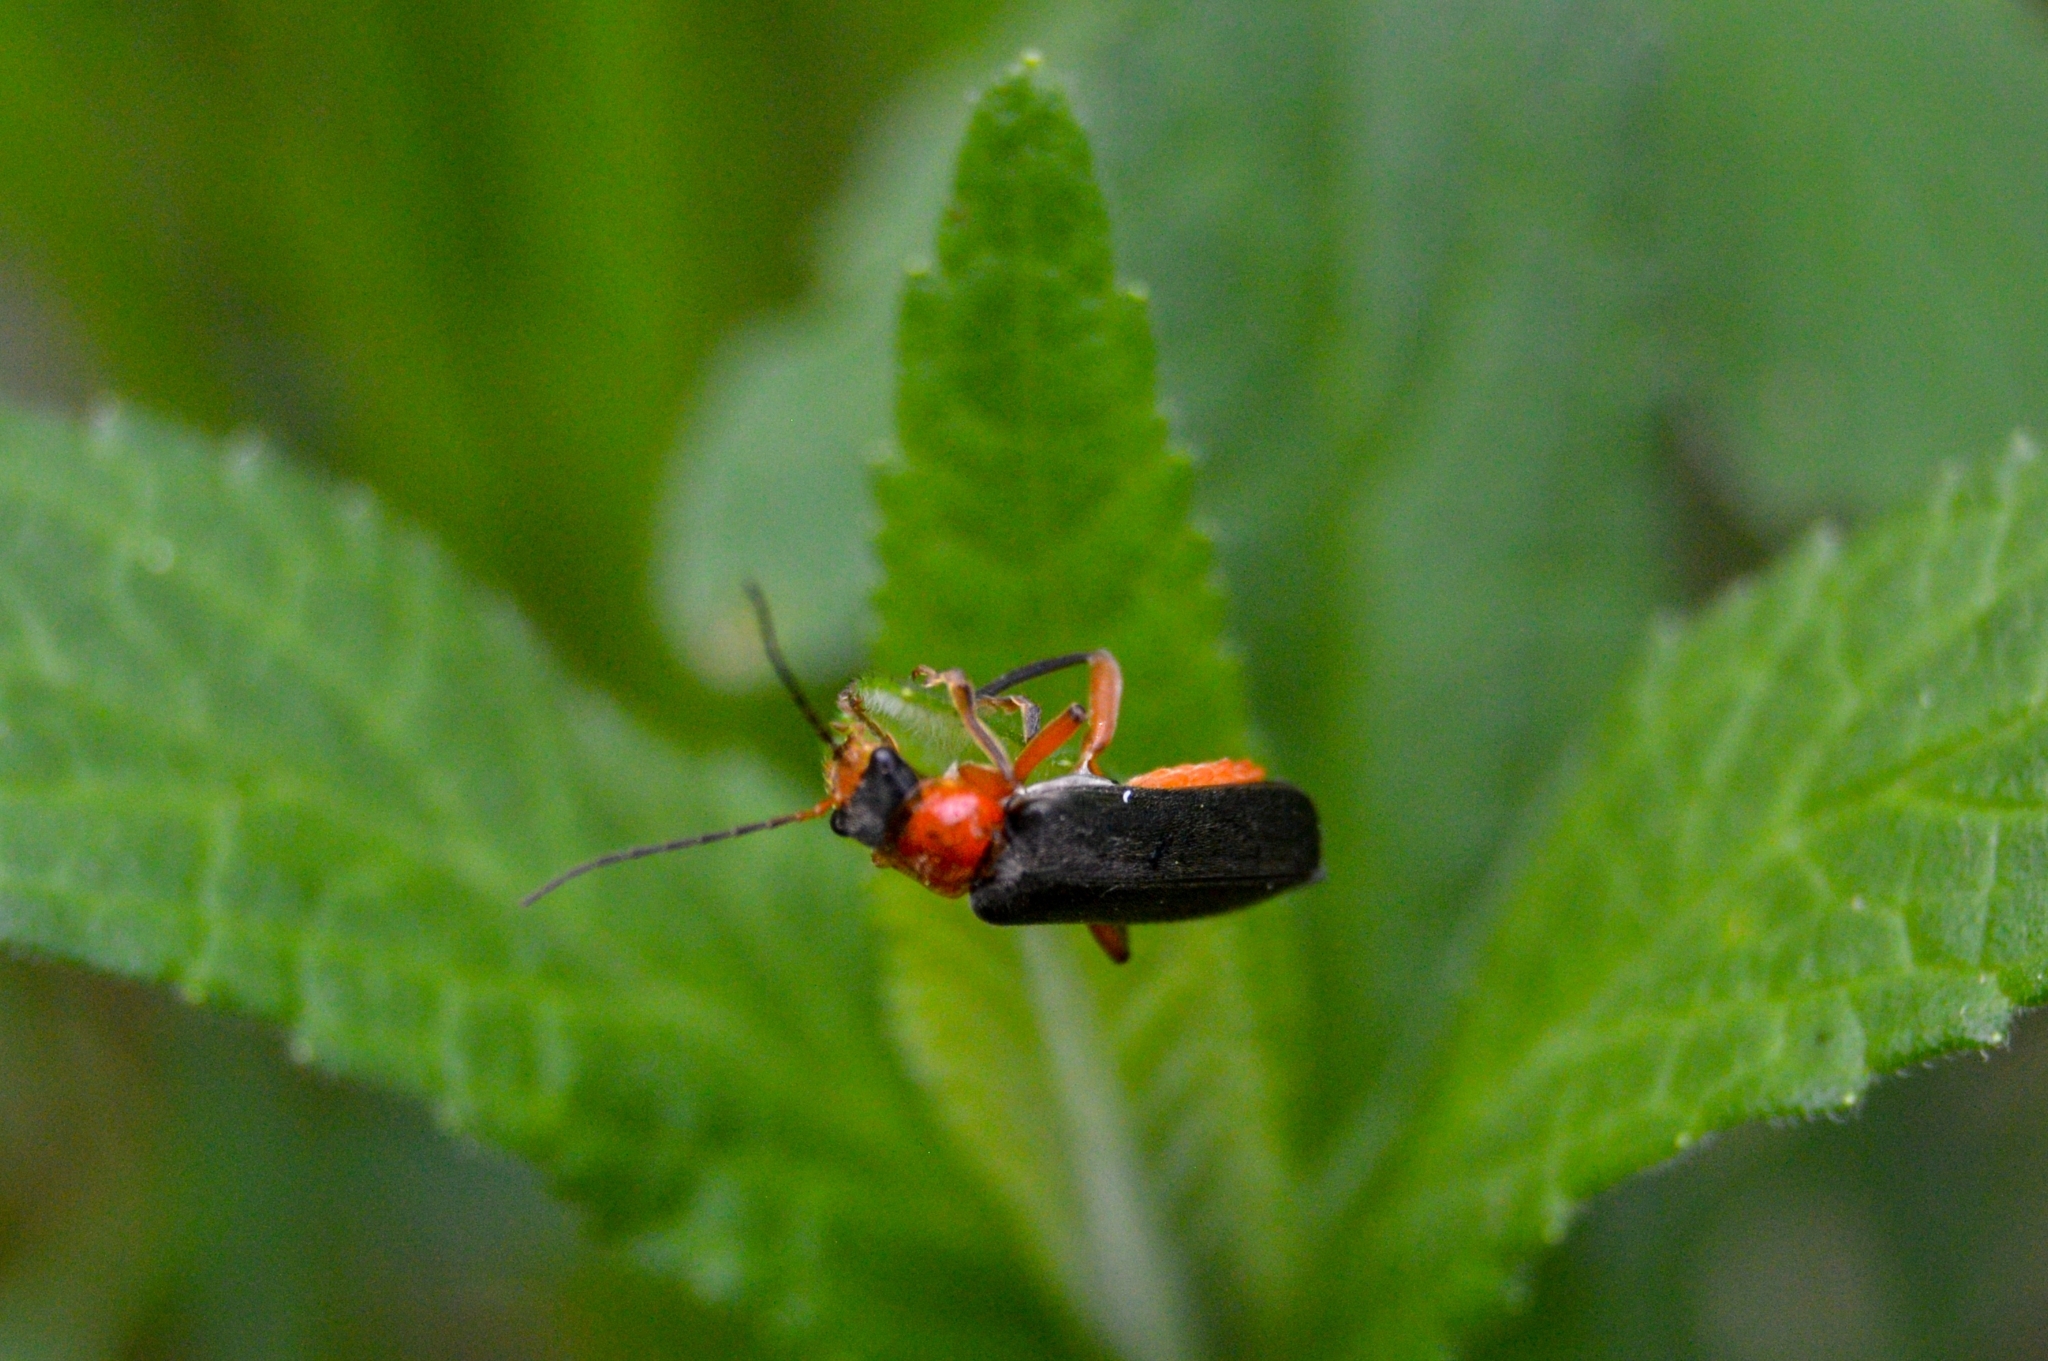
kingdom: Animalia
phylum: Arthropoda
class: Insecta
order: Coleoptera
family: Cantharidae
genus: Cantharis
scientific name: Cantharis pellucida
